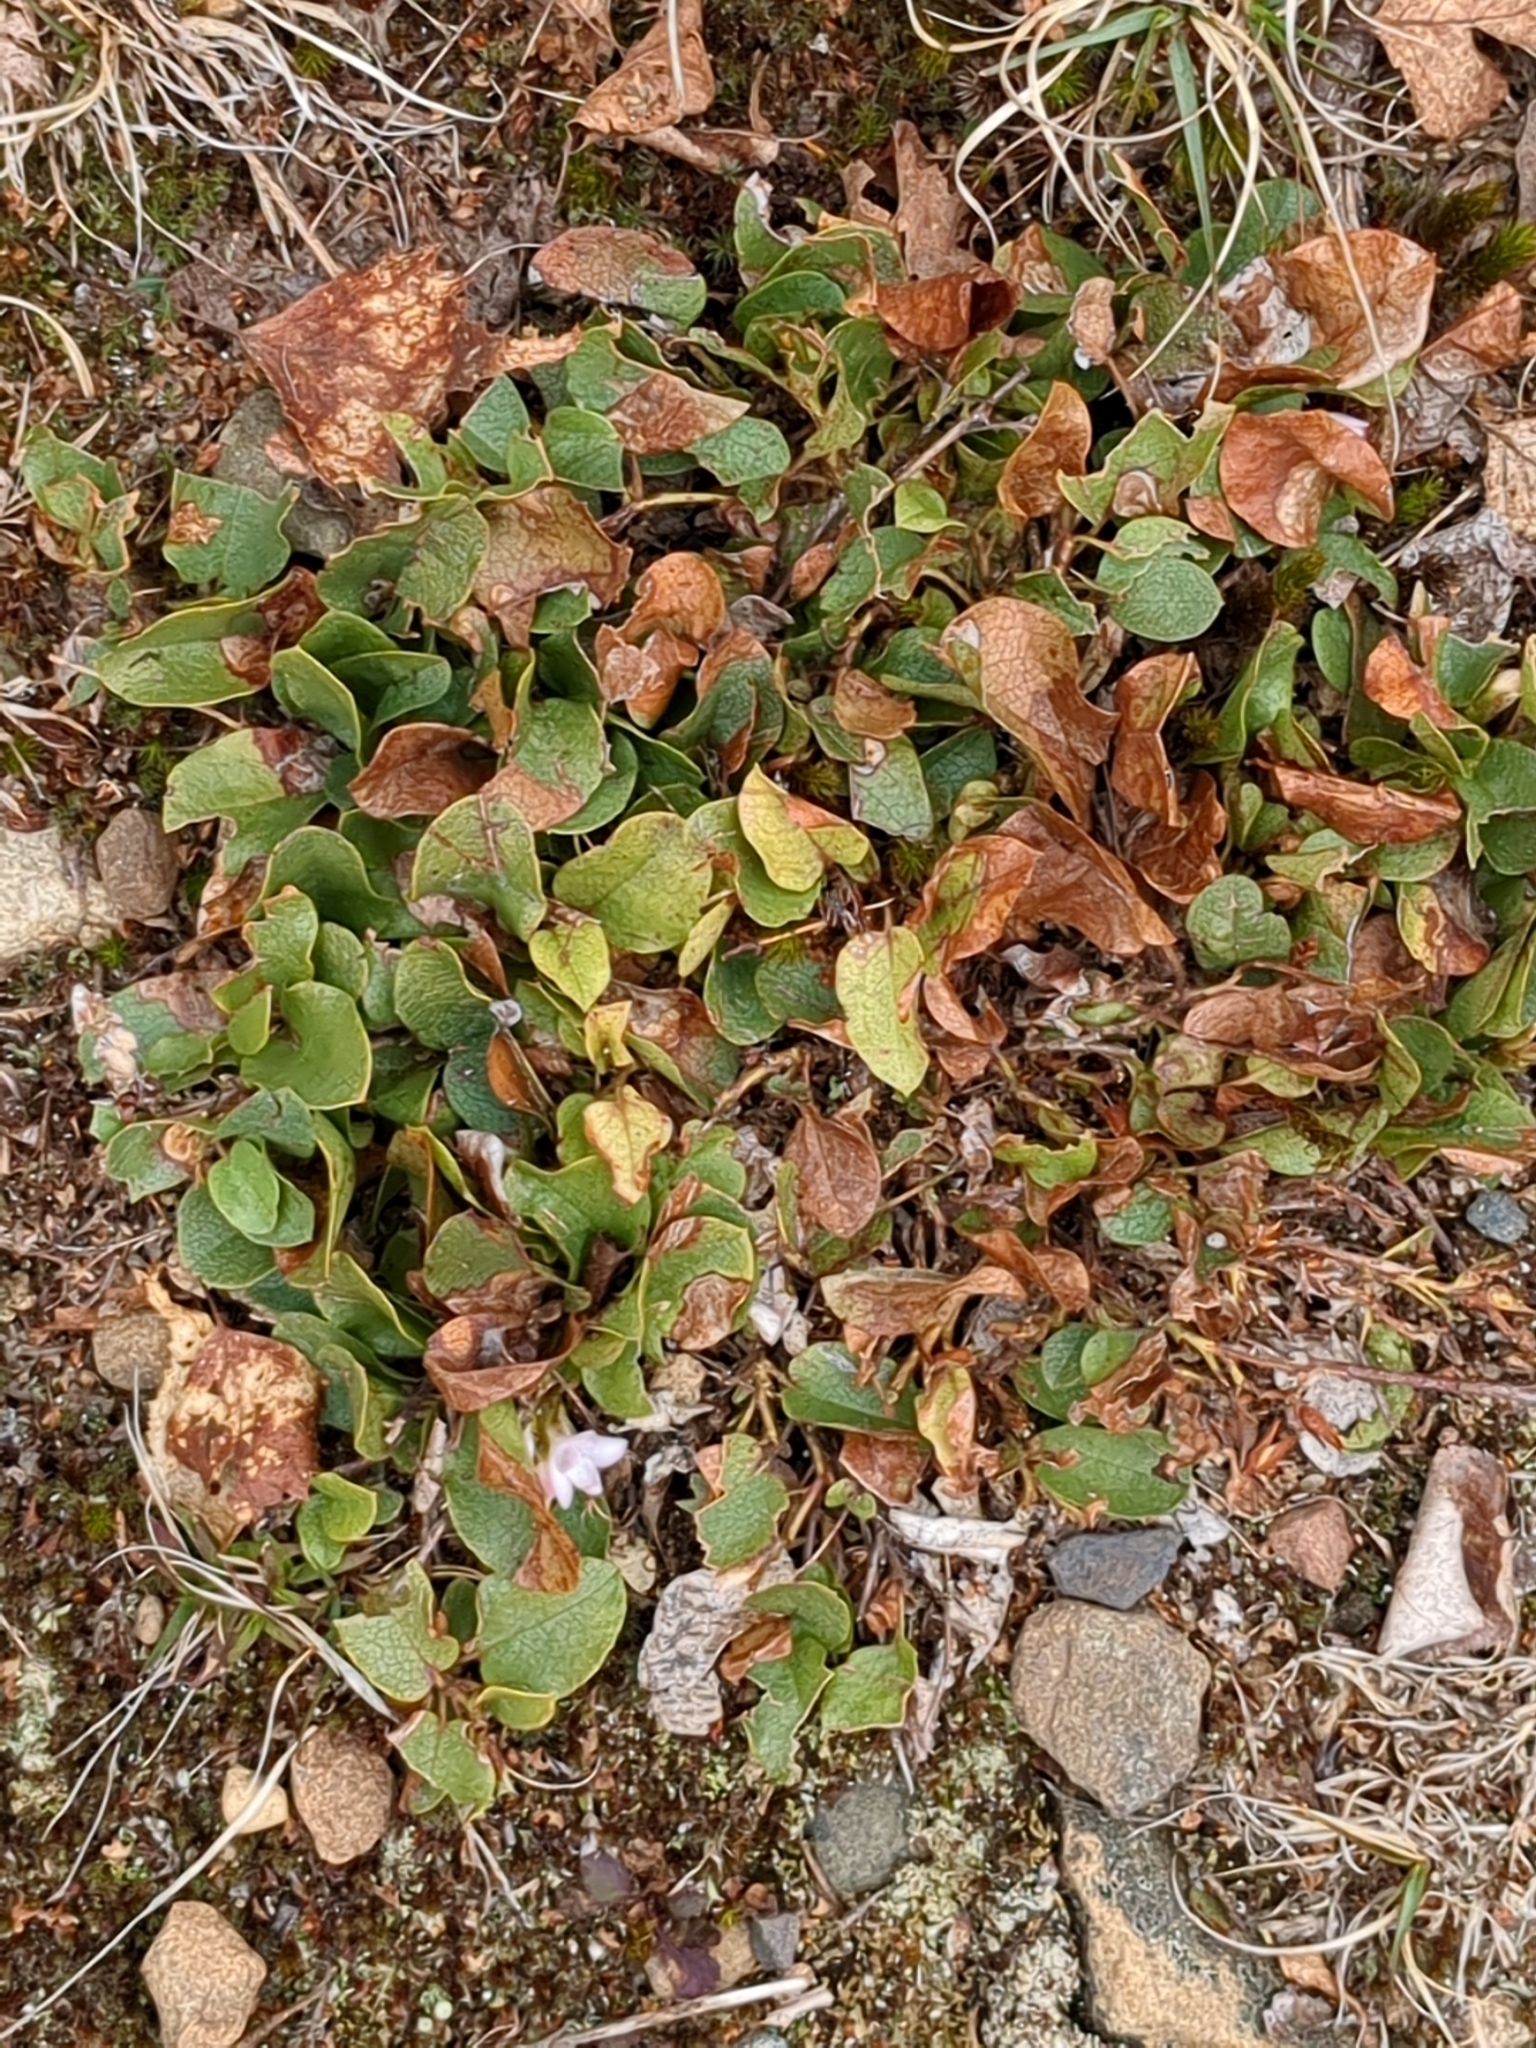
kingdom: Plantae
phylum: Tracheophyta
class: Magnoliopsida
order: Ericales
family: Ericaceae
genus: Epigaea
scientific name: Epigaea repens
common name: Gravelroot
